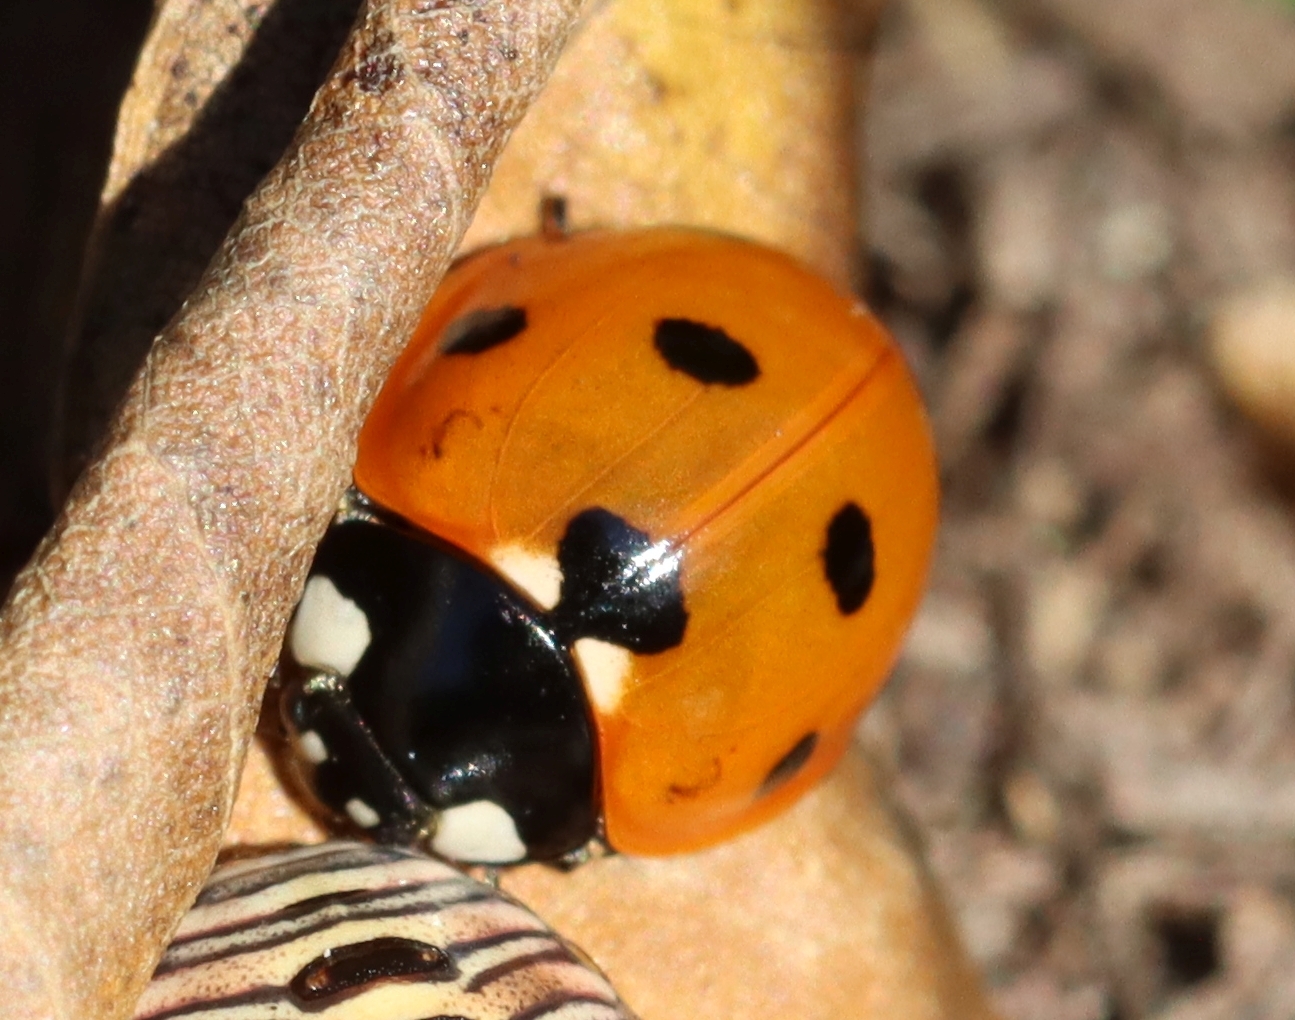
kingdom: Animalia
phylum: Arthropoda
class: Insecta
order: Coleoptera
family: Coccinellidae
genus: Coccinella
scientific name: Coccinella septempunctata
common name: Sevenspotted lady beetle
